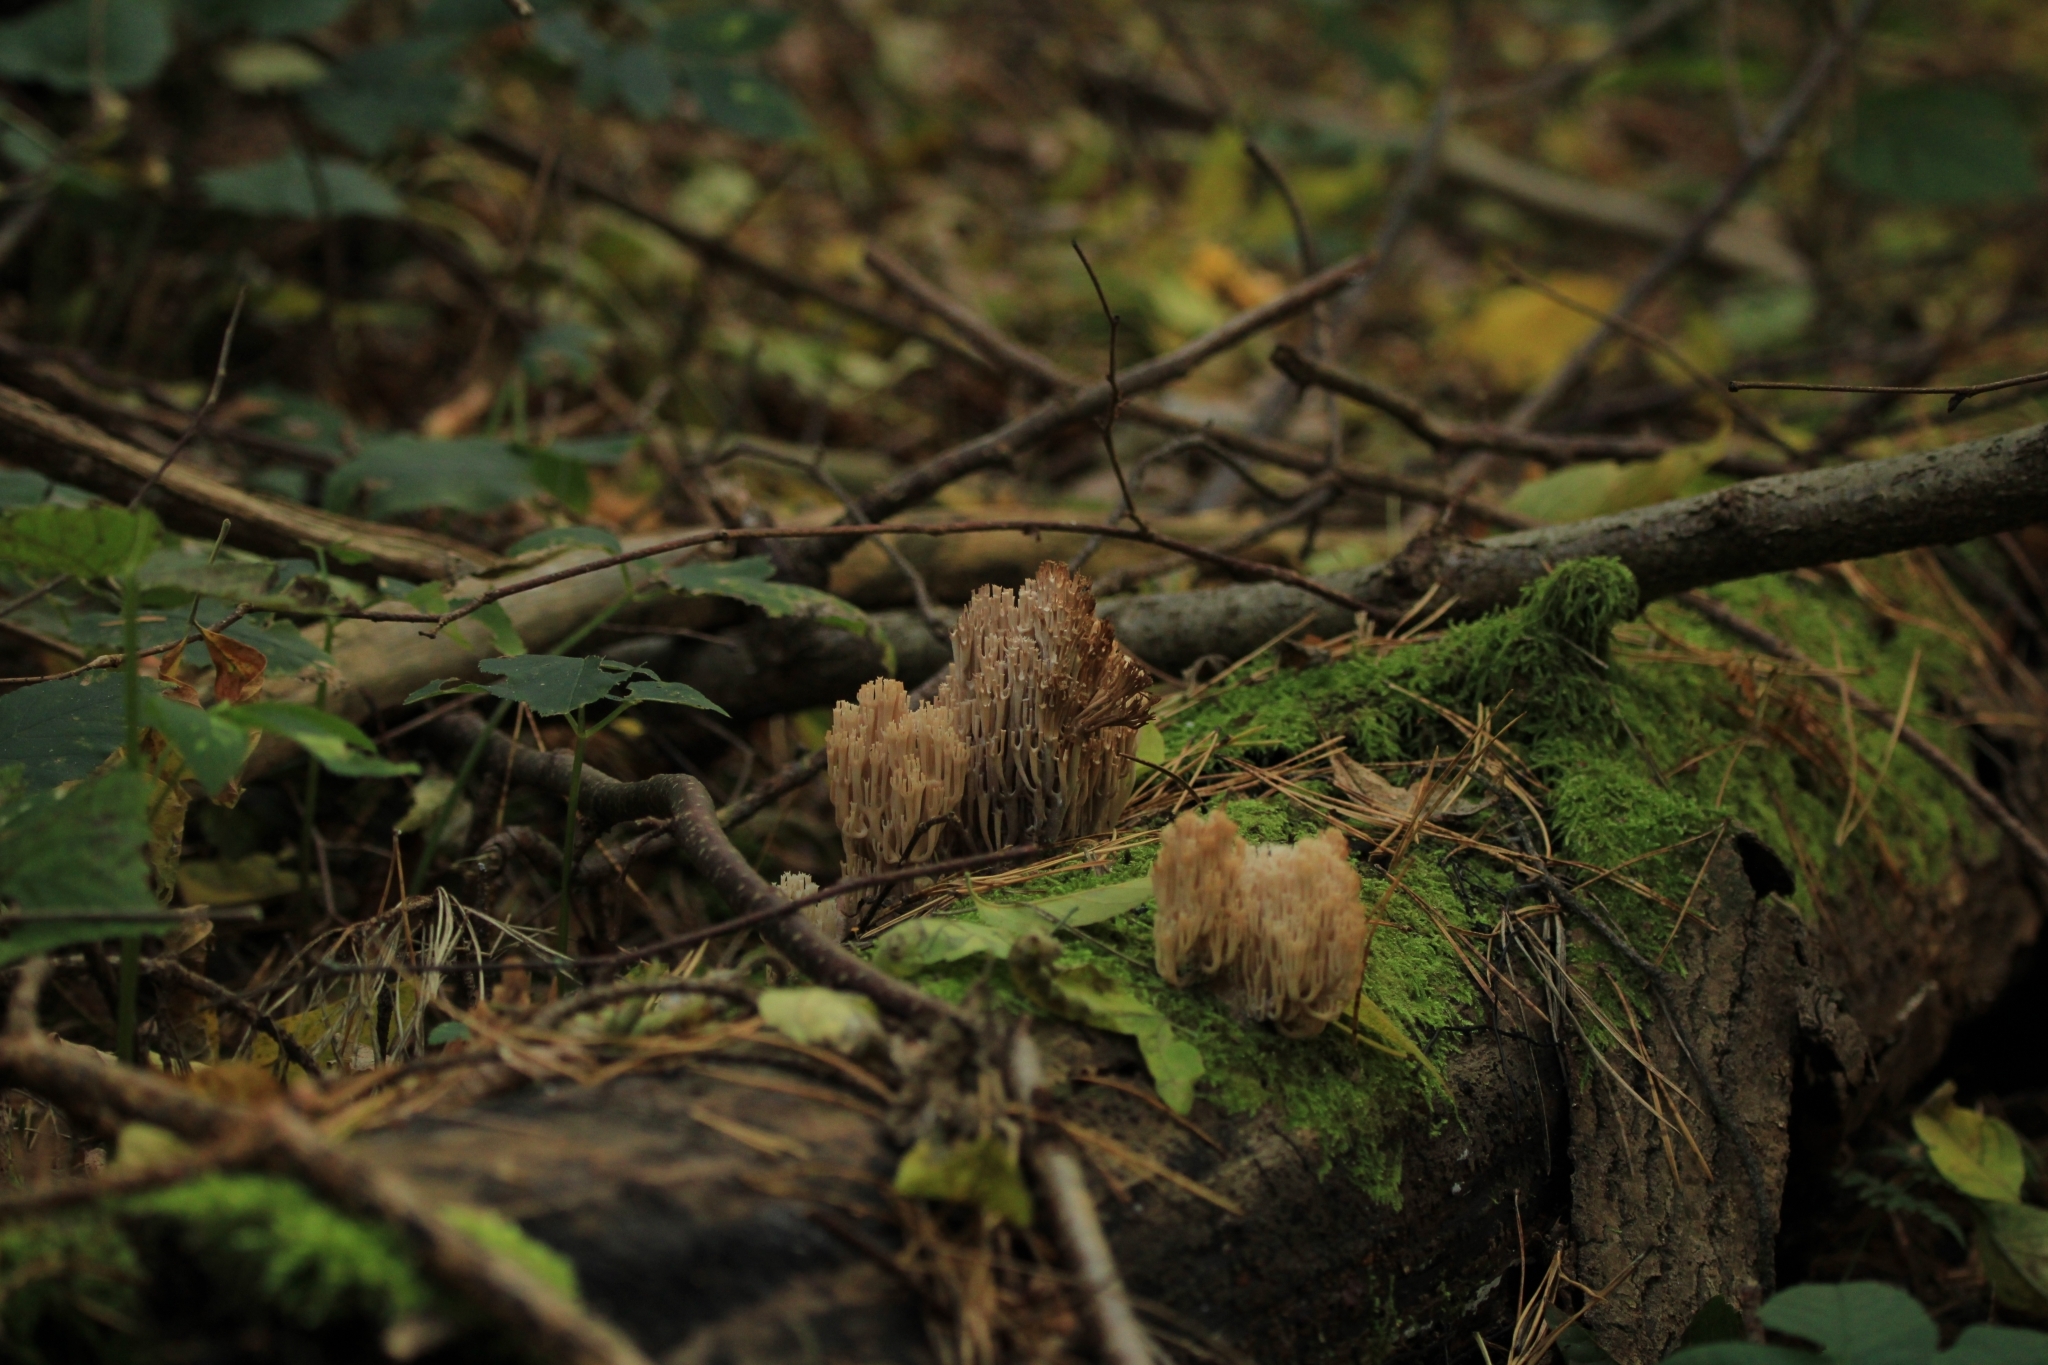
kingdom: Fungi
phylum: Basidiomycota
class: Agaricomycetes
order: Russulales
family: Auriscalpiaceae
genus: Artomyces
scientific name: Artomyces pyxidatus
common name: Crown-tipped coral fungus
